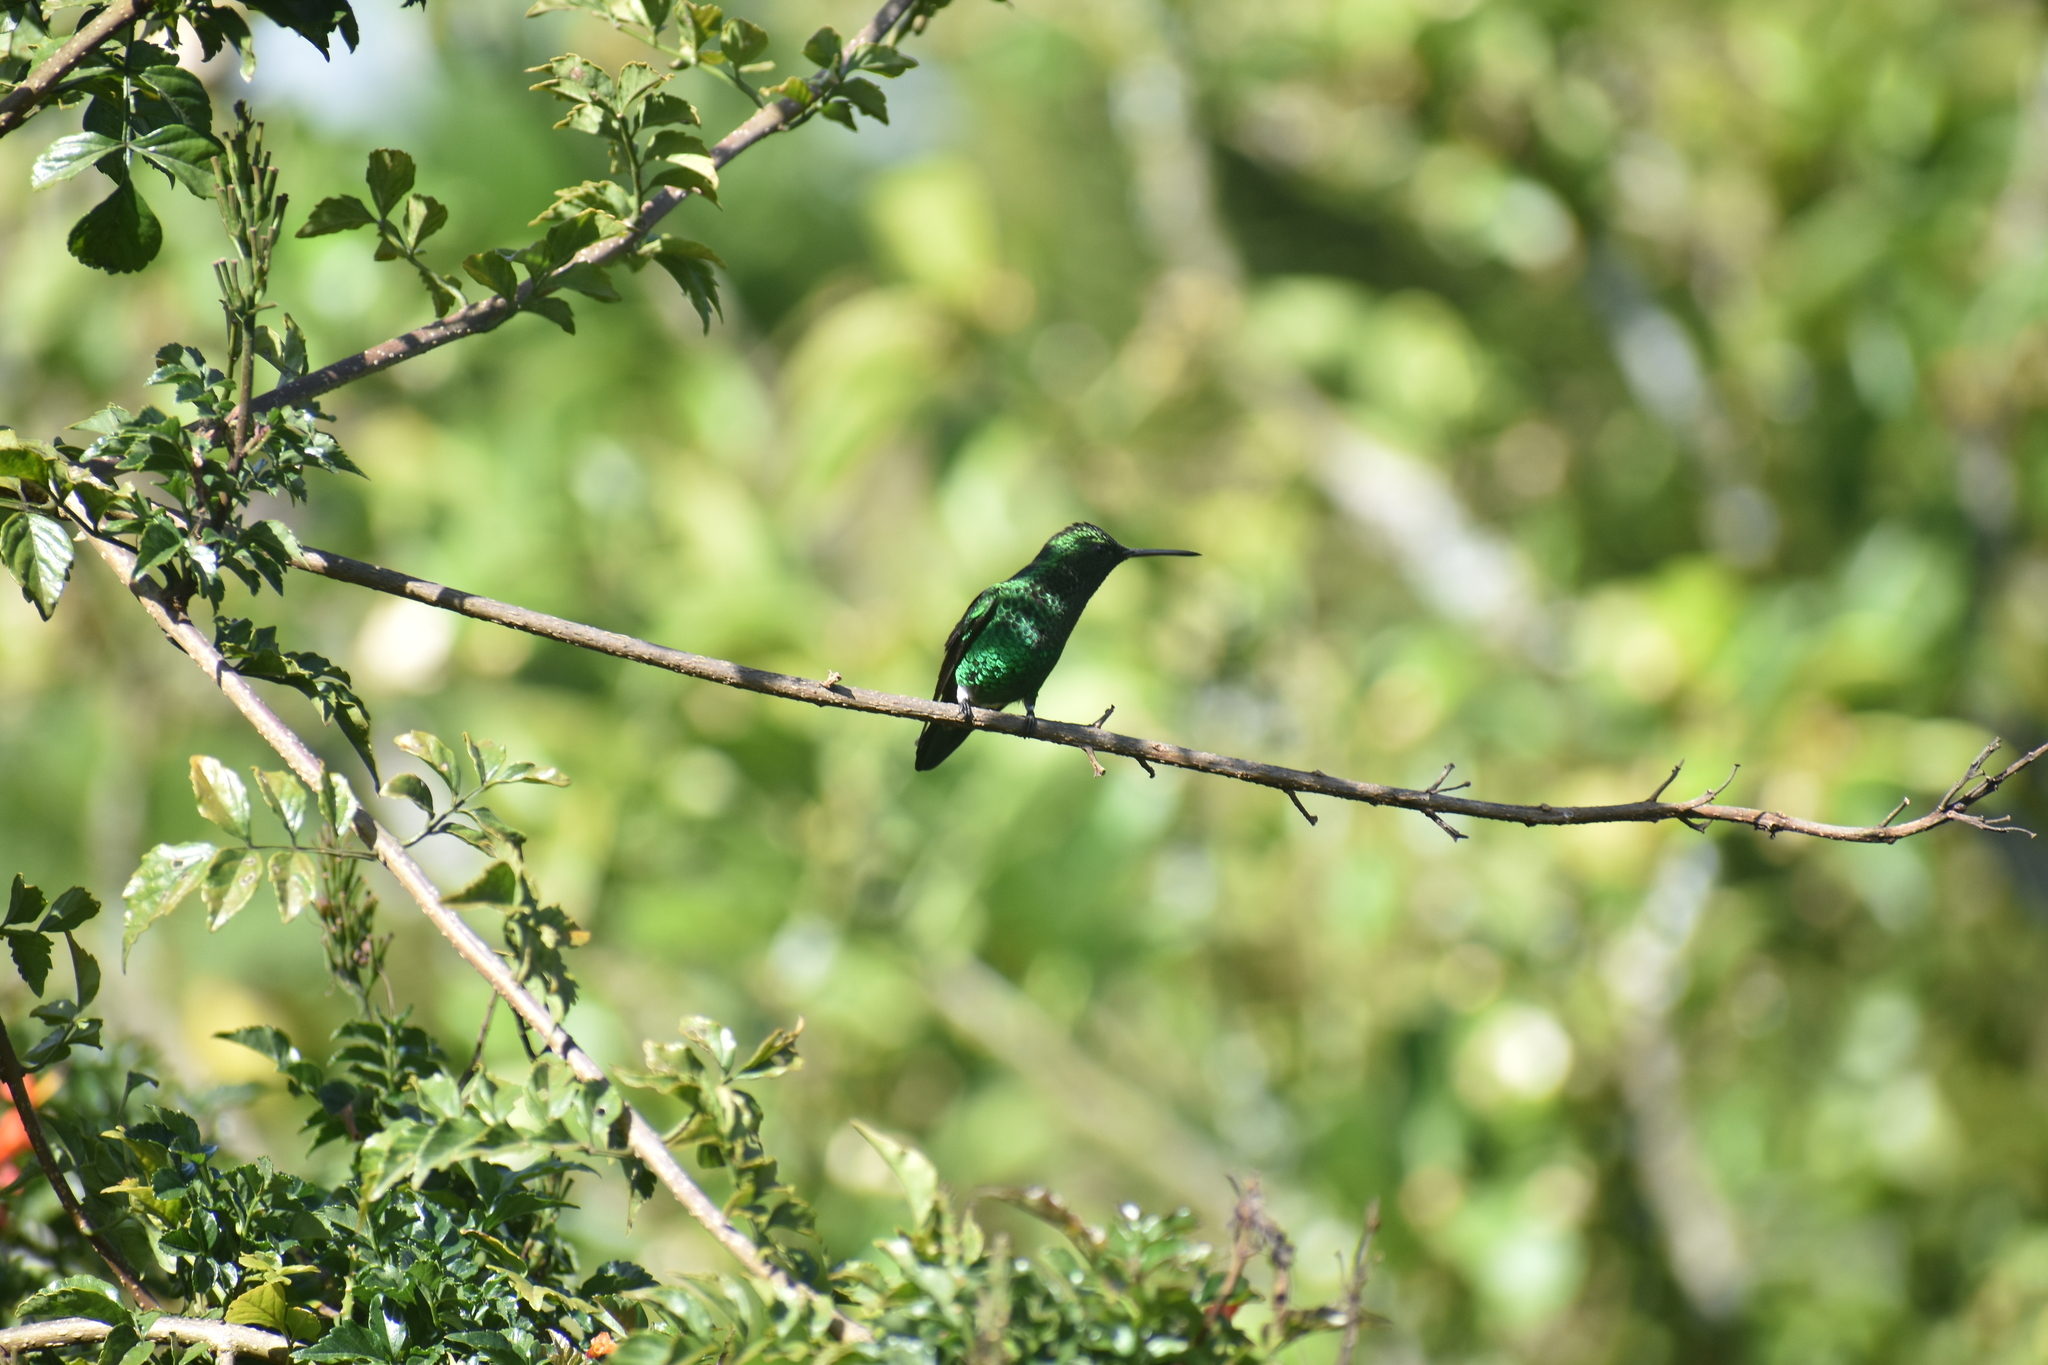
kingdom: Animalia
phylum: Chordata
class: Aves
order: Apodiformes
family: Trochilidae
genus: Saucerottia
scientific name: Saucerottia saucerottei
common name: Steely-vented hummingbird
